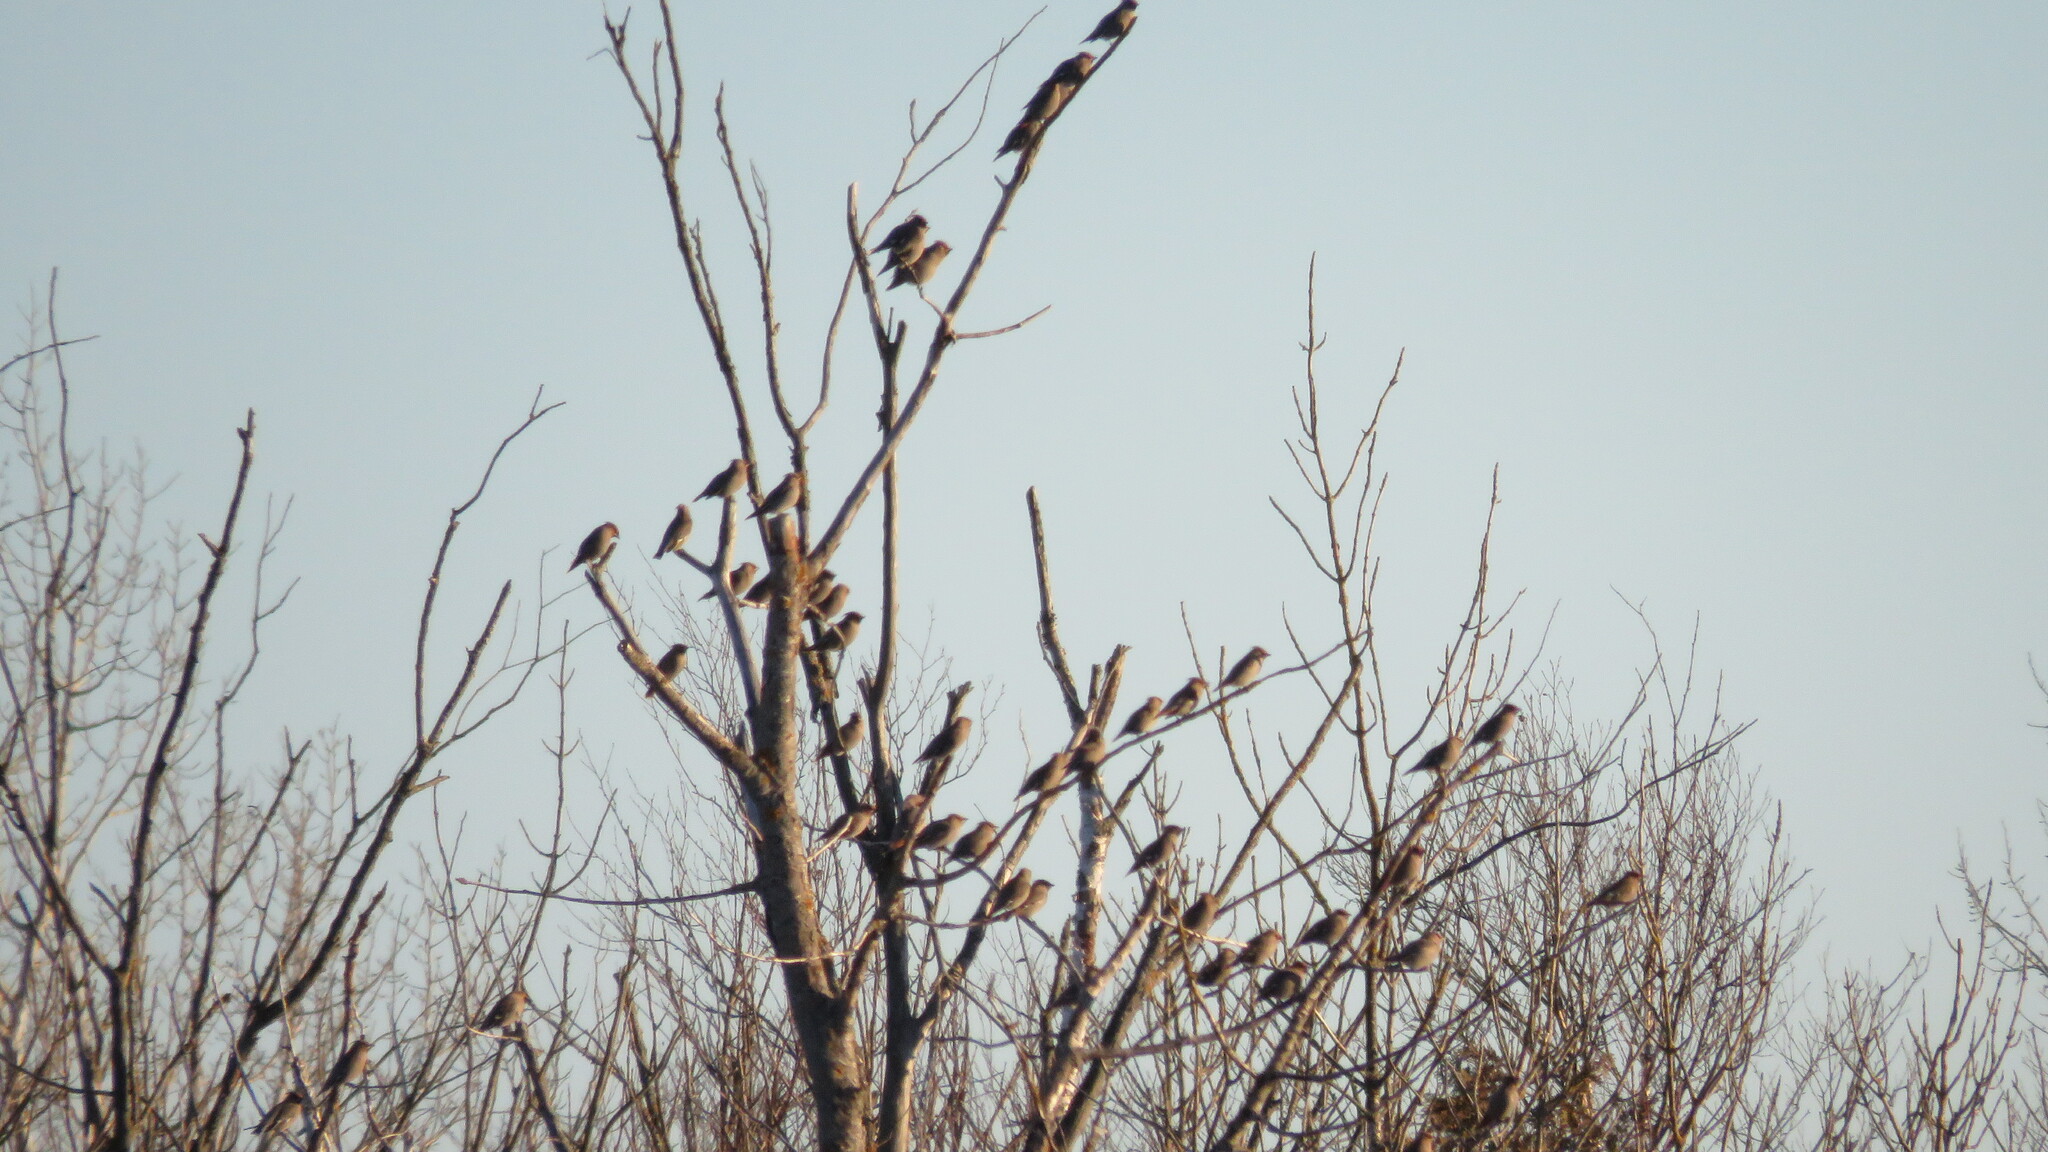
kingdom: Animalia
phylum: Chordata
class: Aves
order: Passeriformes
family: Bombycillidae
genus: Bombycilla
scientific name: Bombycilla garrulus
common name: Bohemian waxwing
